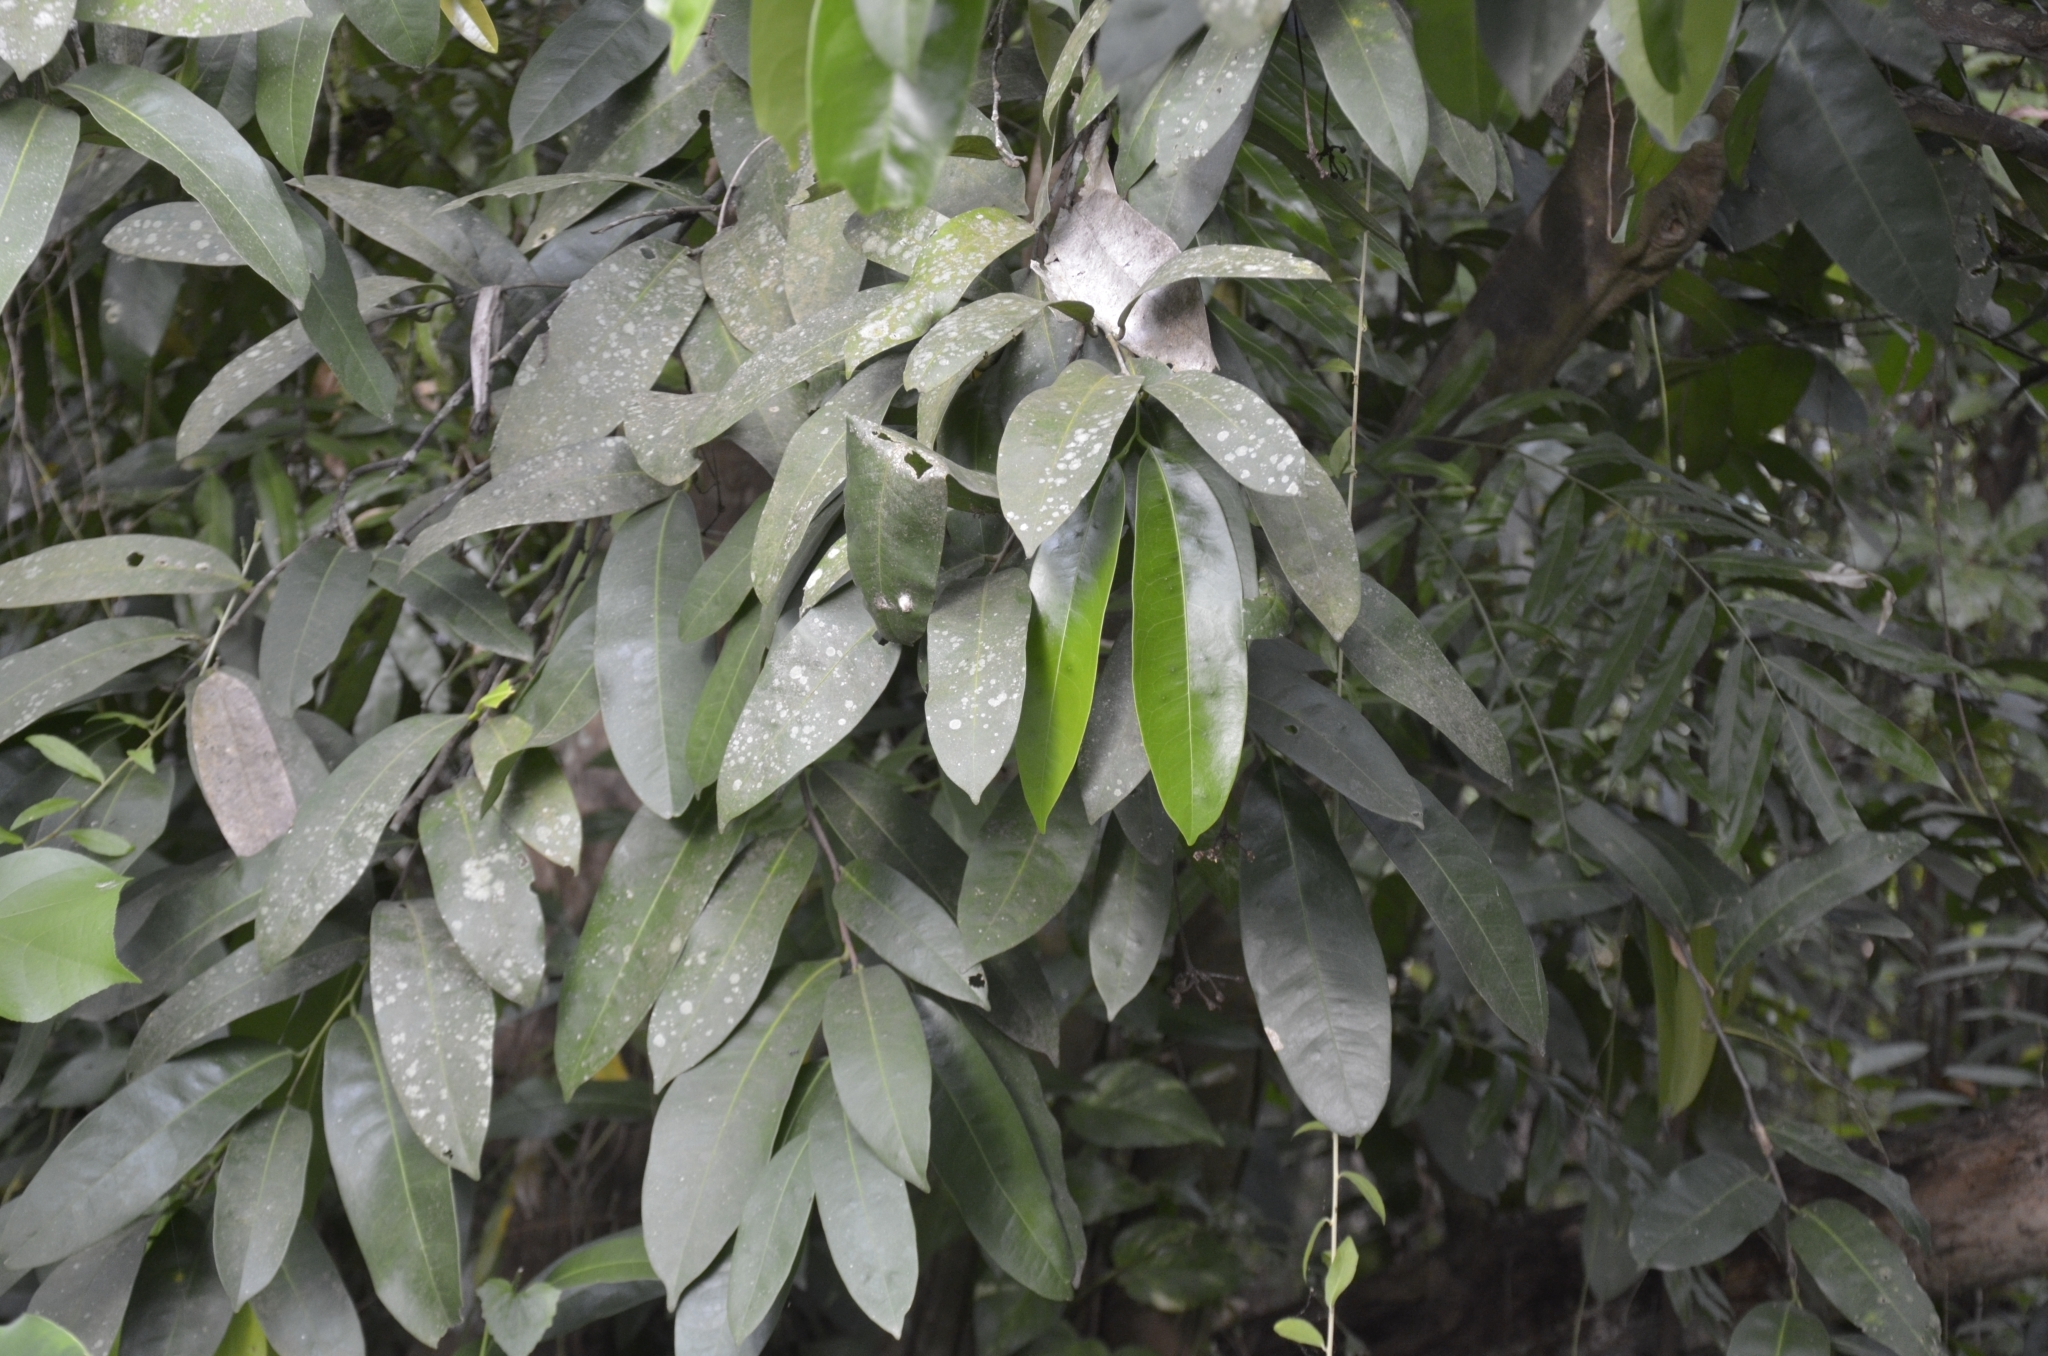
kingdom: Plantae
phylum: Tracheophyta
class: Magnoliopsida
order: Sapindales
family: Simaroubaceae
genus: Samadera
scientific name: Samadera indica
